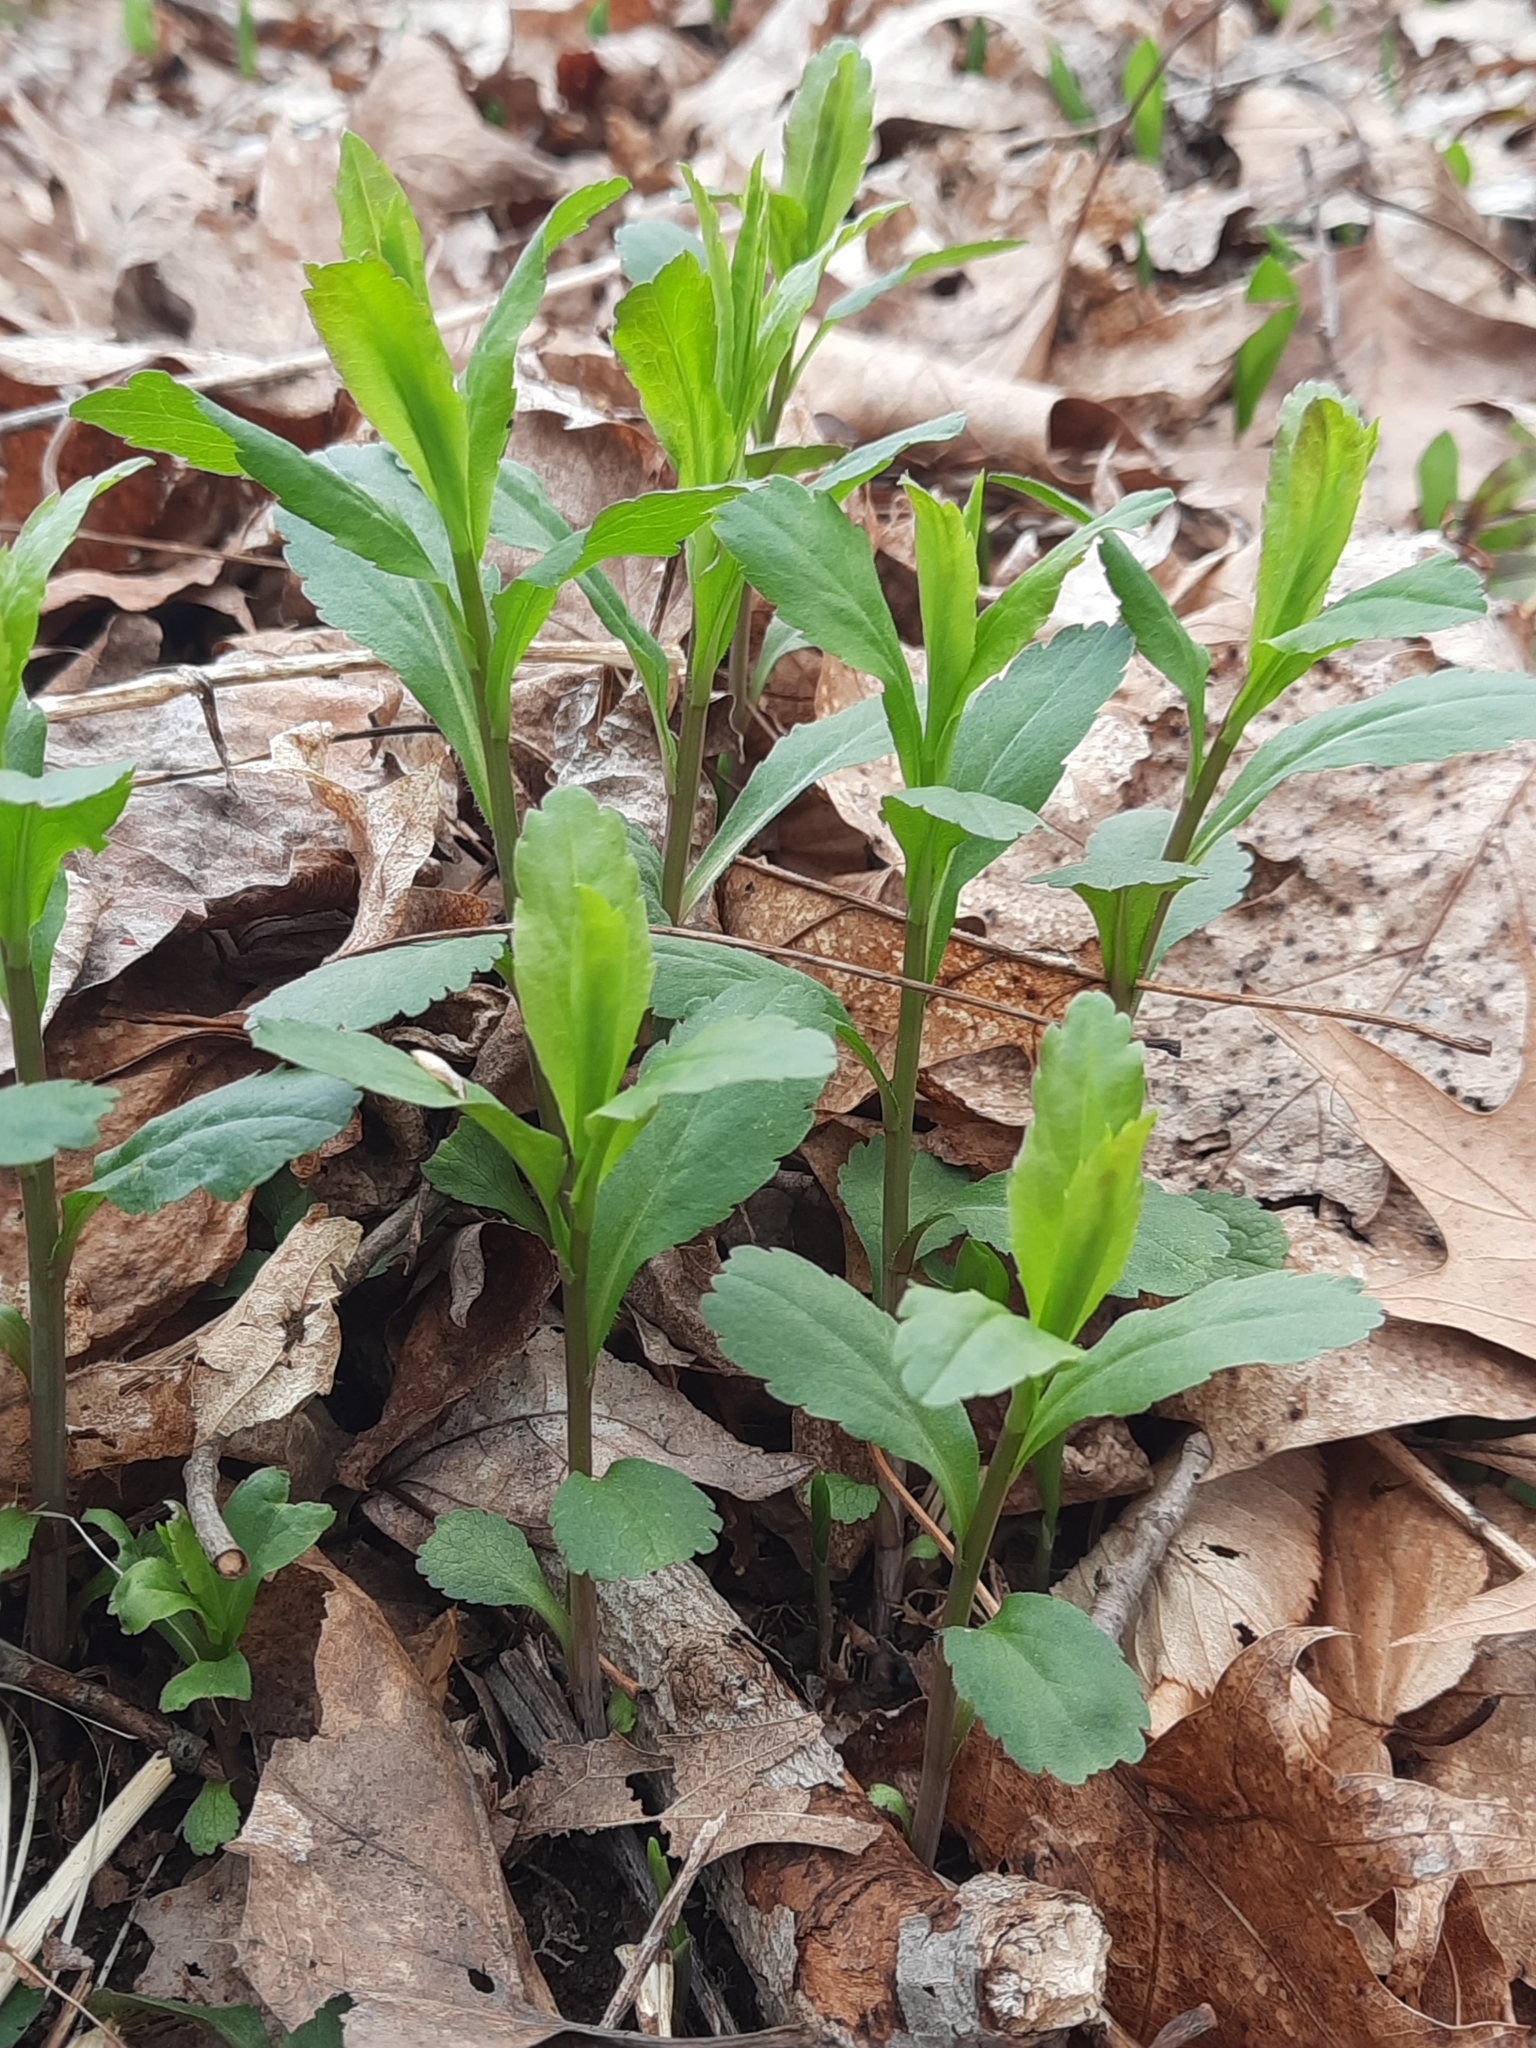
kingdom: Plantae
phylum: Tracheophyta
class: Magnoliopsida
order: Asterales
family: Campanulaceae
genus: Lobelia
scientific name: Lobelia inflata
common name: Indian tobacco
